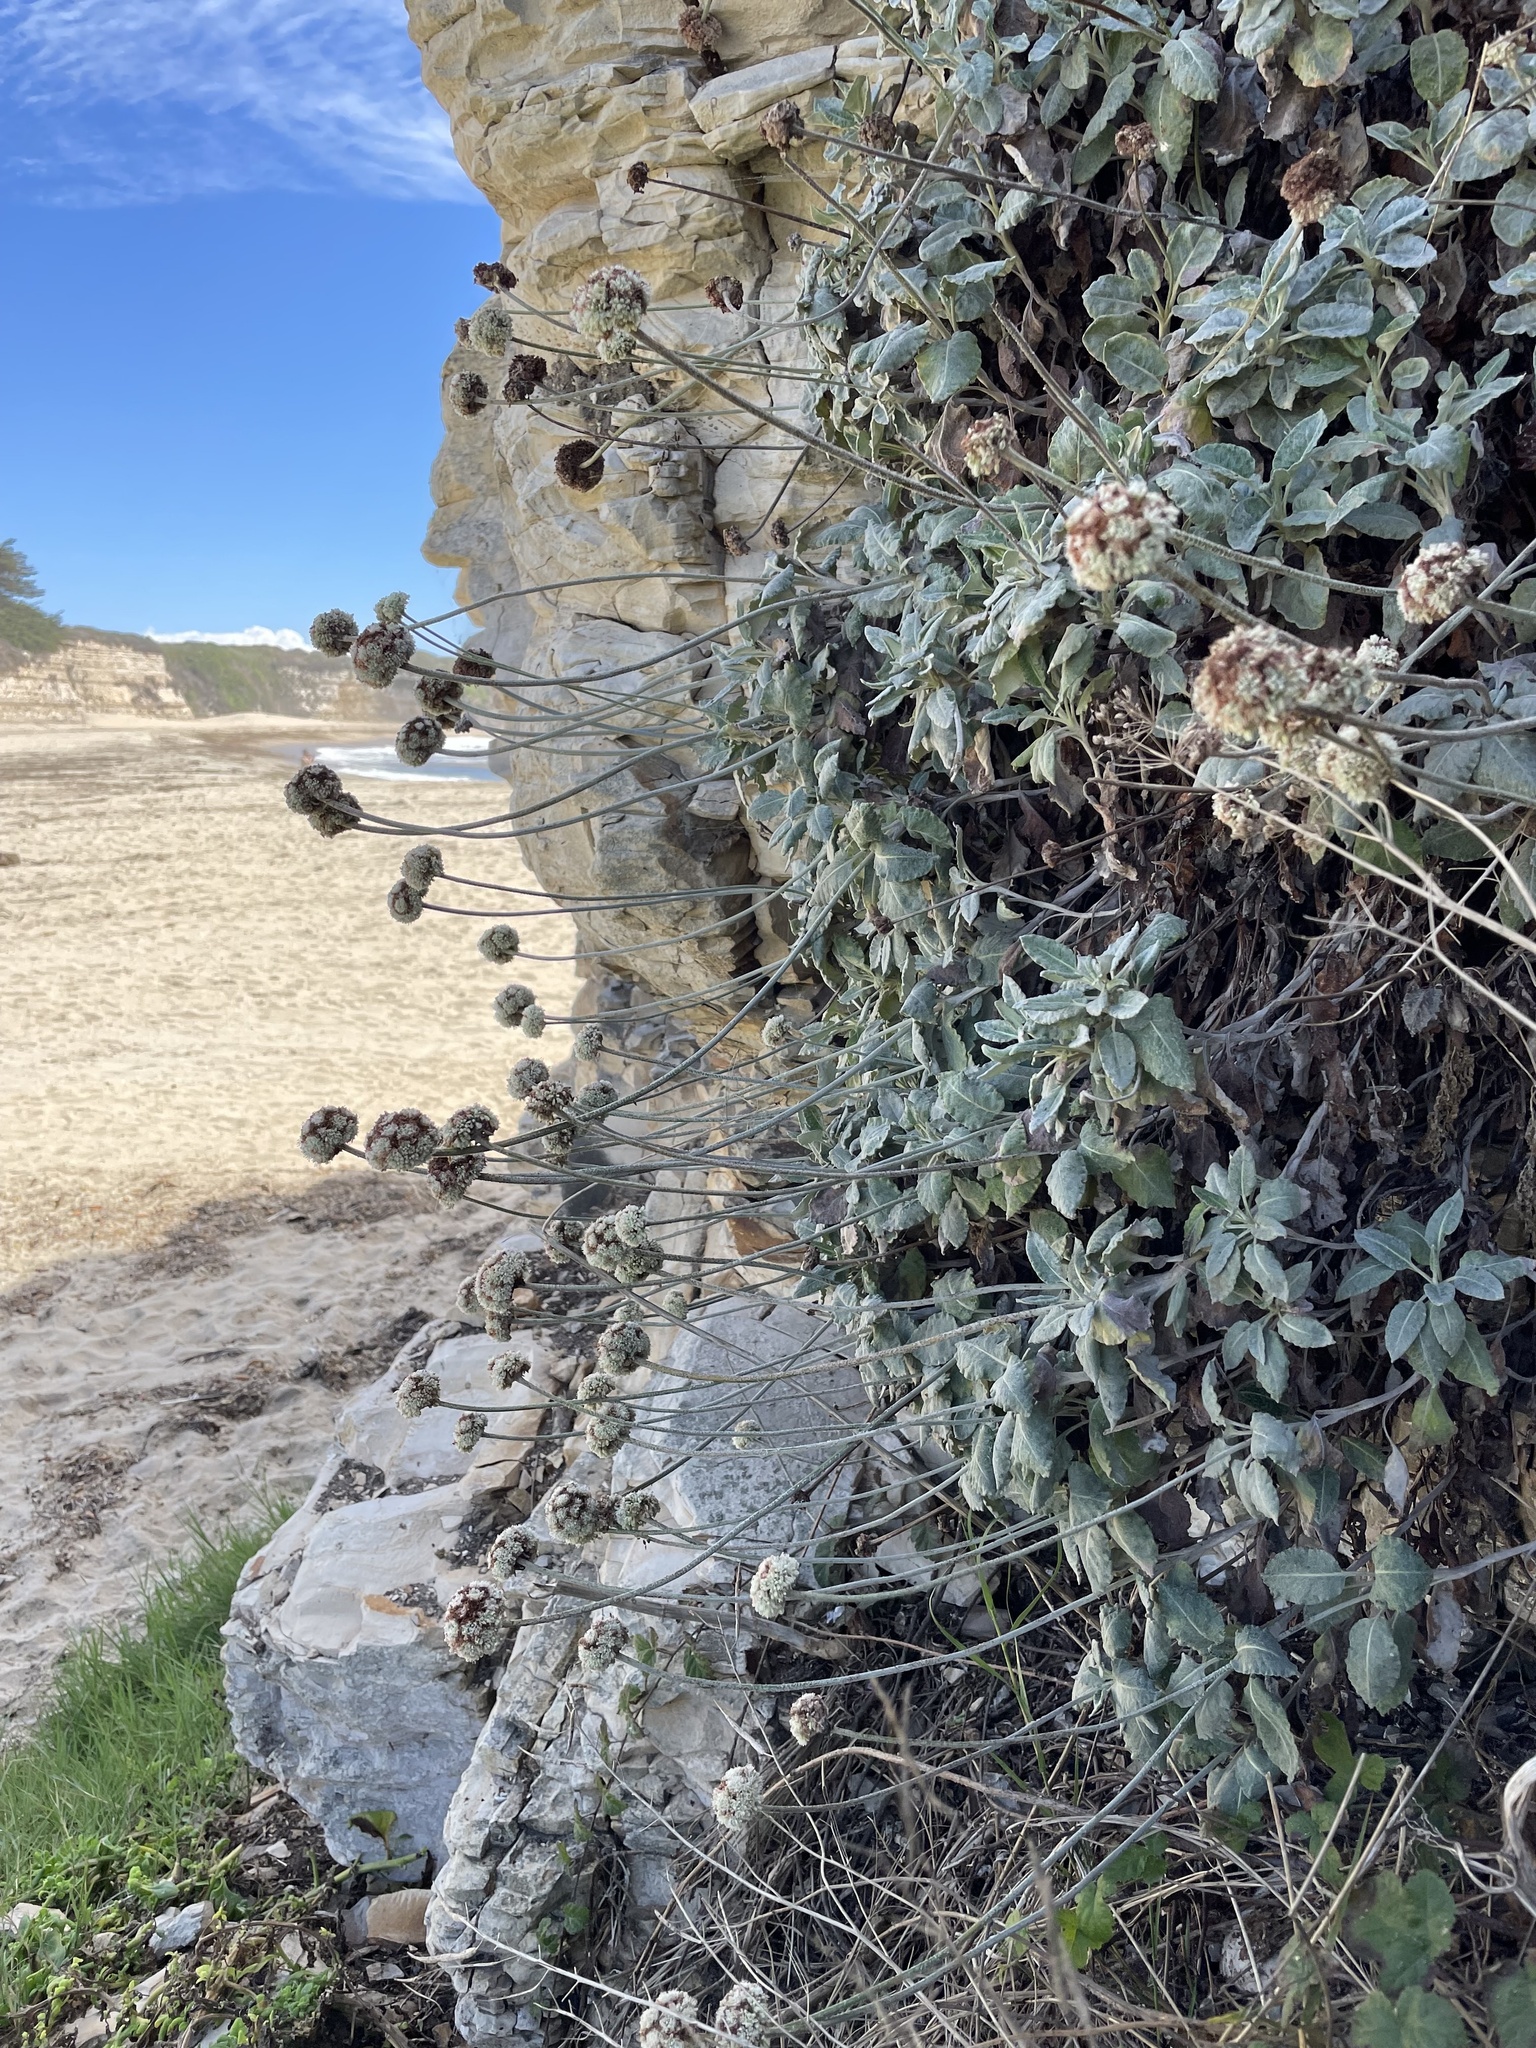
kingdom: Plantae
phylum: Tracheophyta
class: Magnoliopsida
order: Caryophyllales
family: Polygonaceae
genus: Eriogonum
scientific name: Eriogonum latifolium
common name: Seaside wild buckwheat
